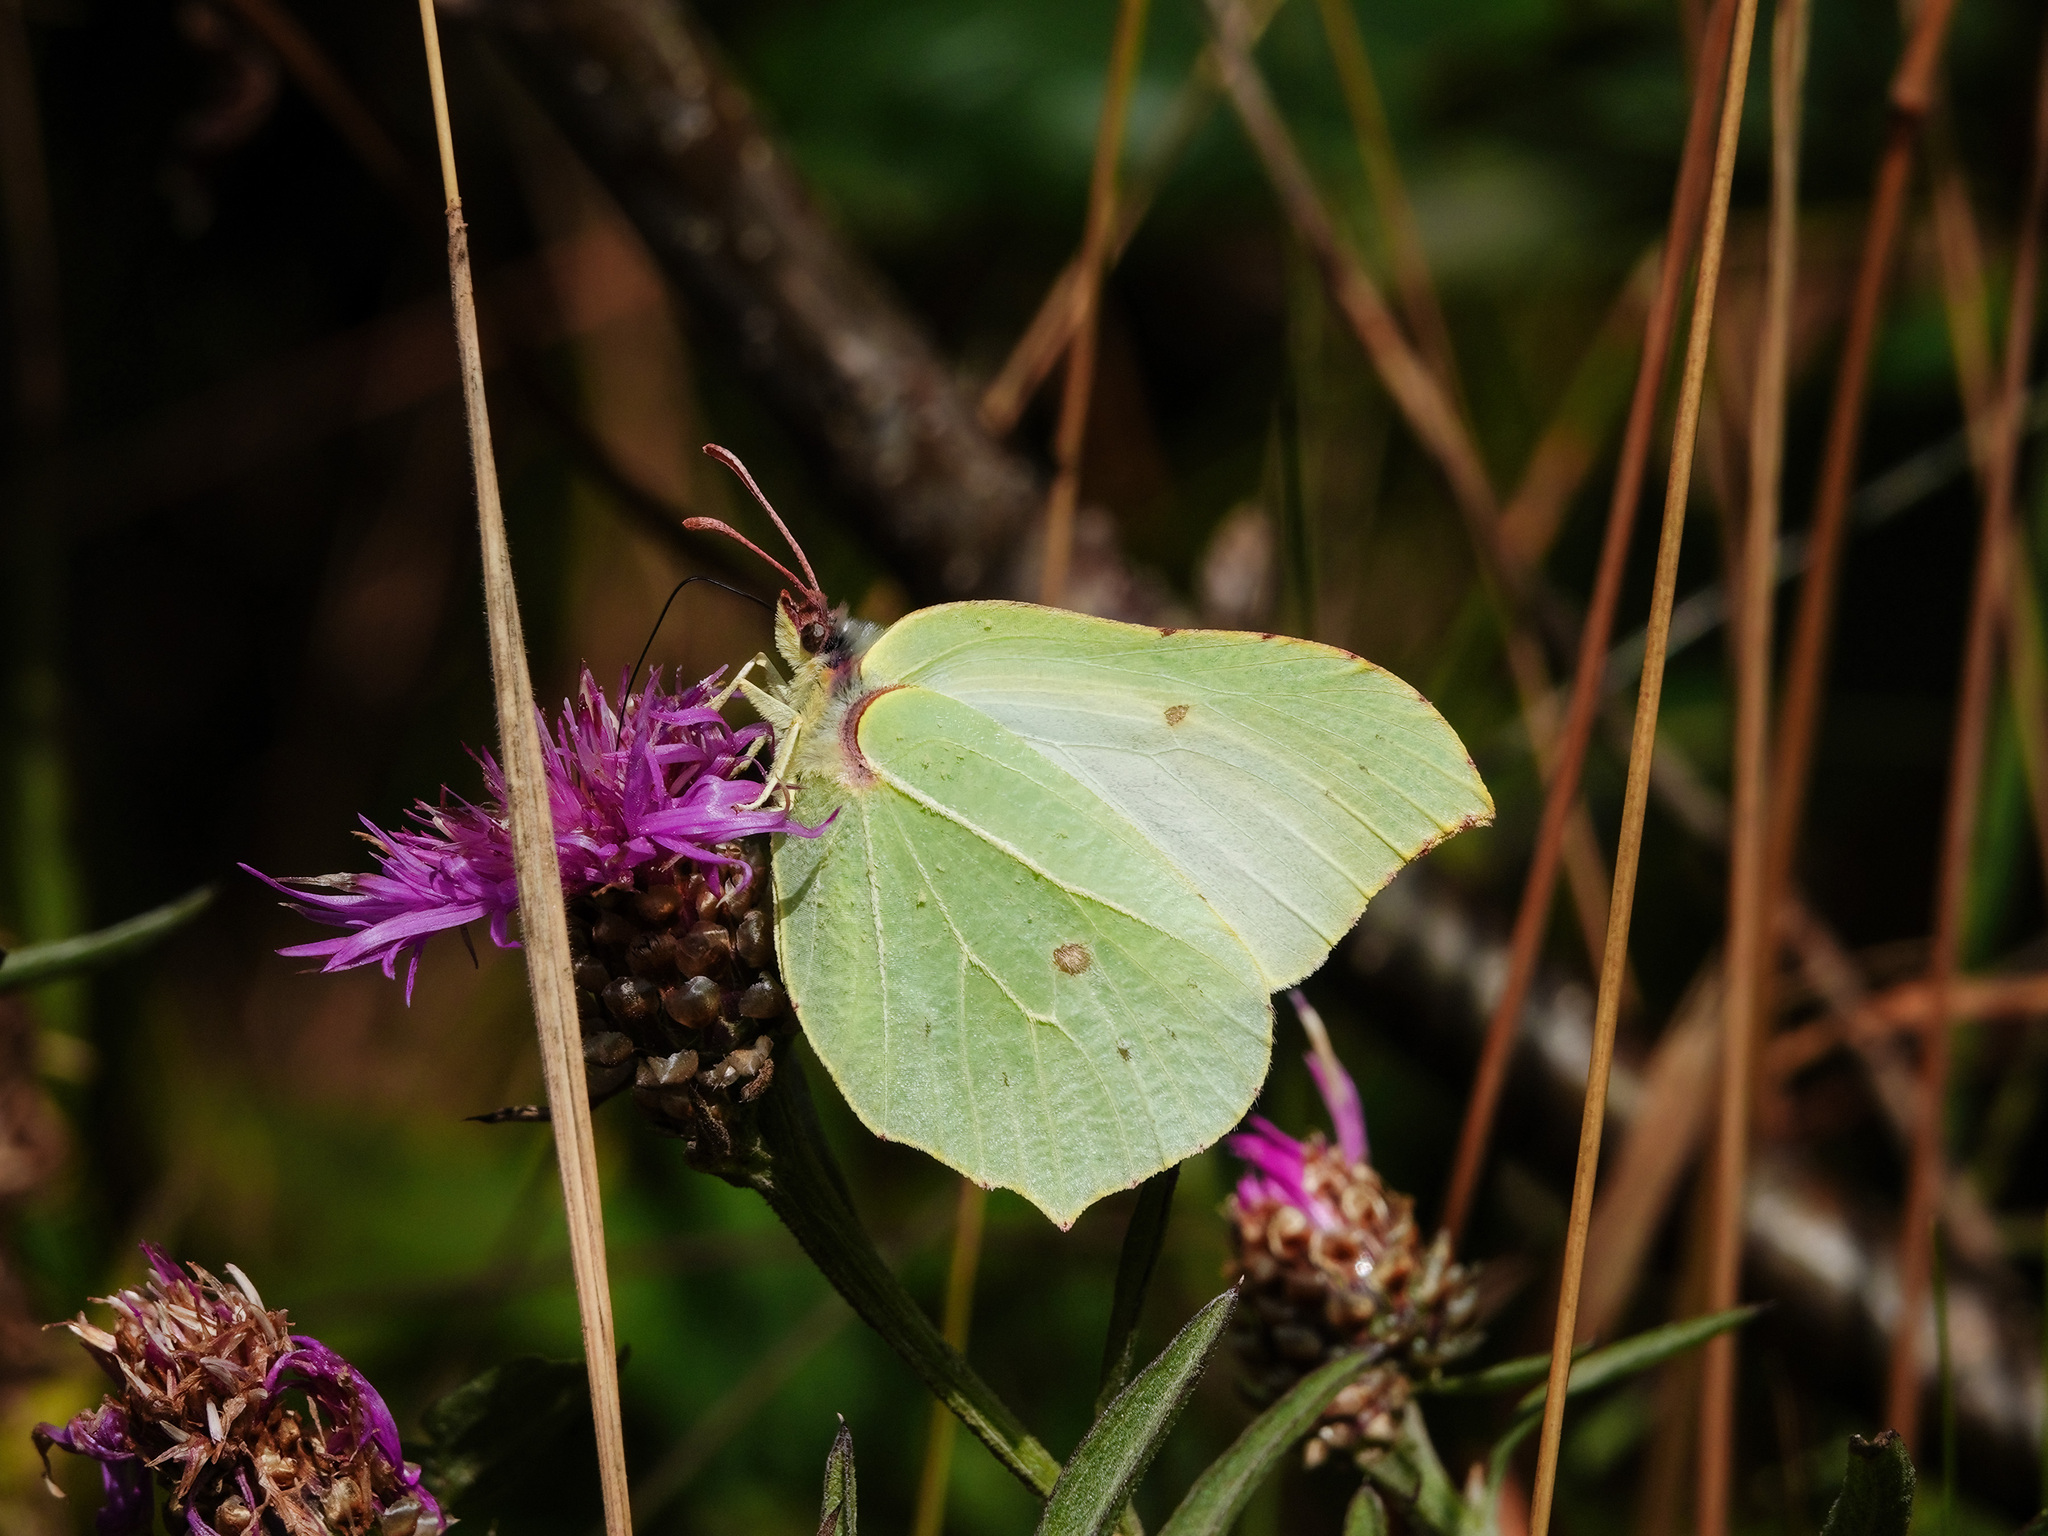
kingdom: Animalia
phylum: Arthropoda
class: Insecta
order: Lepidoptera
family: Pieridae
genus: Gonepteryx
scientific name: Gonepteryx rhamni
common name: Brimstone
